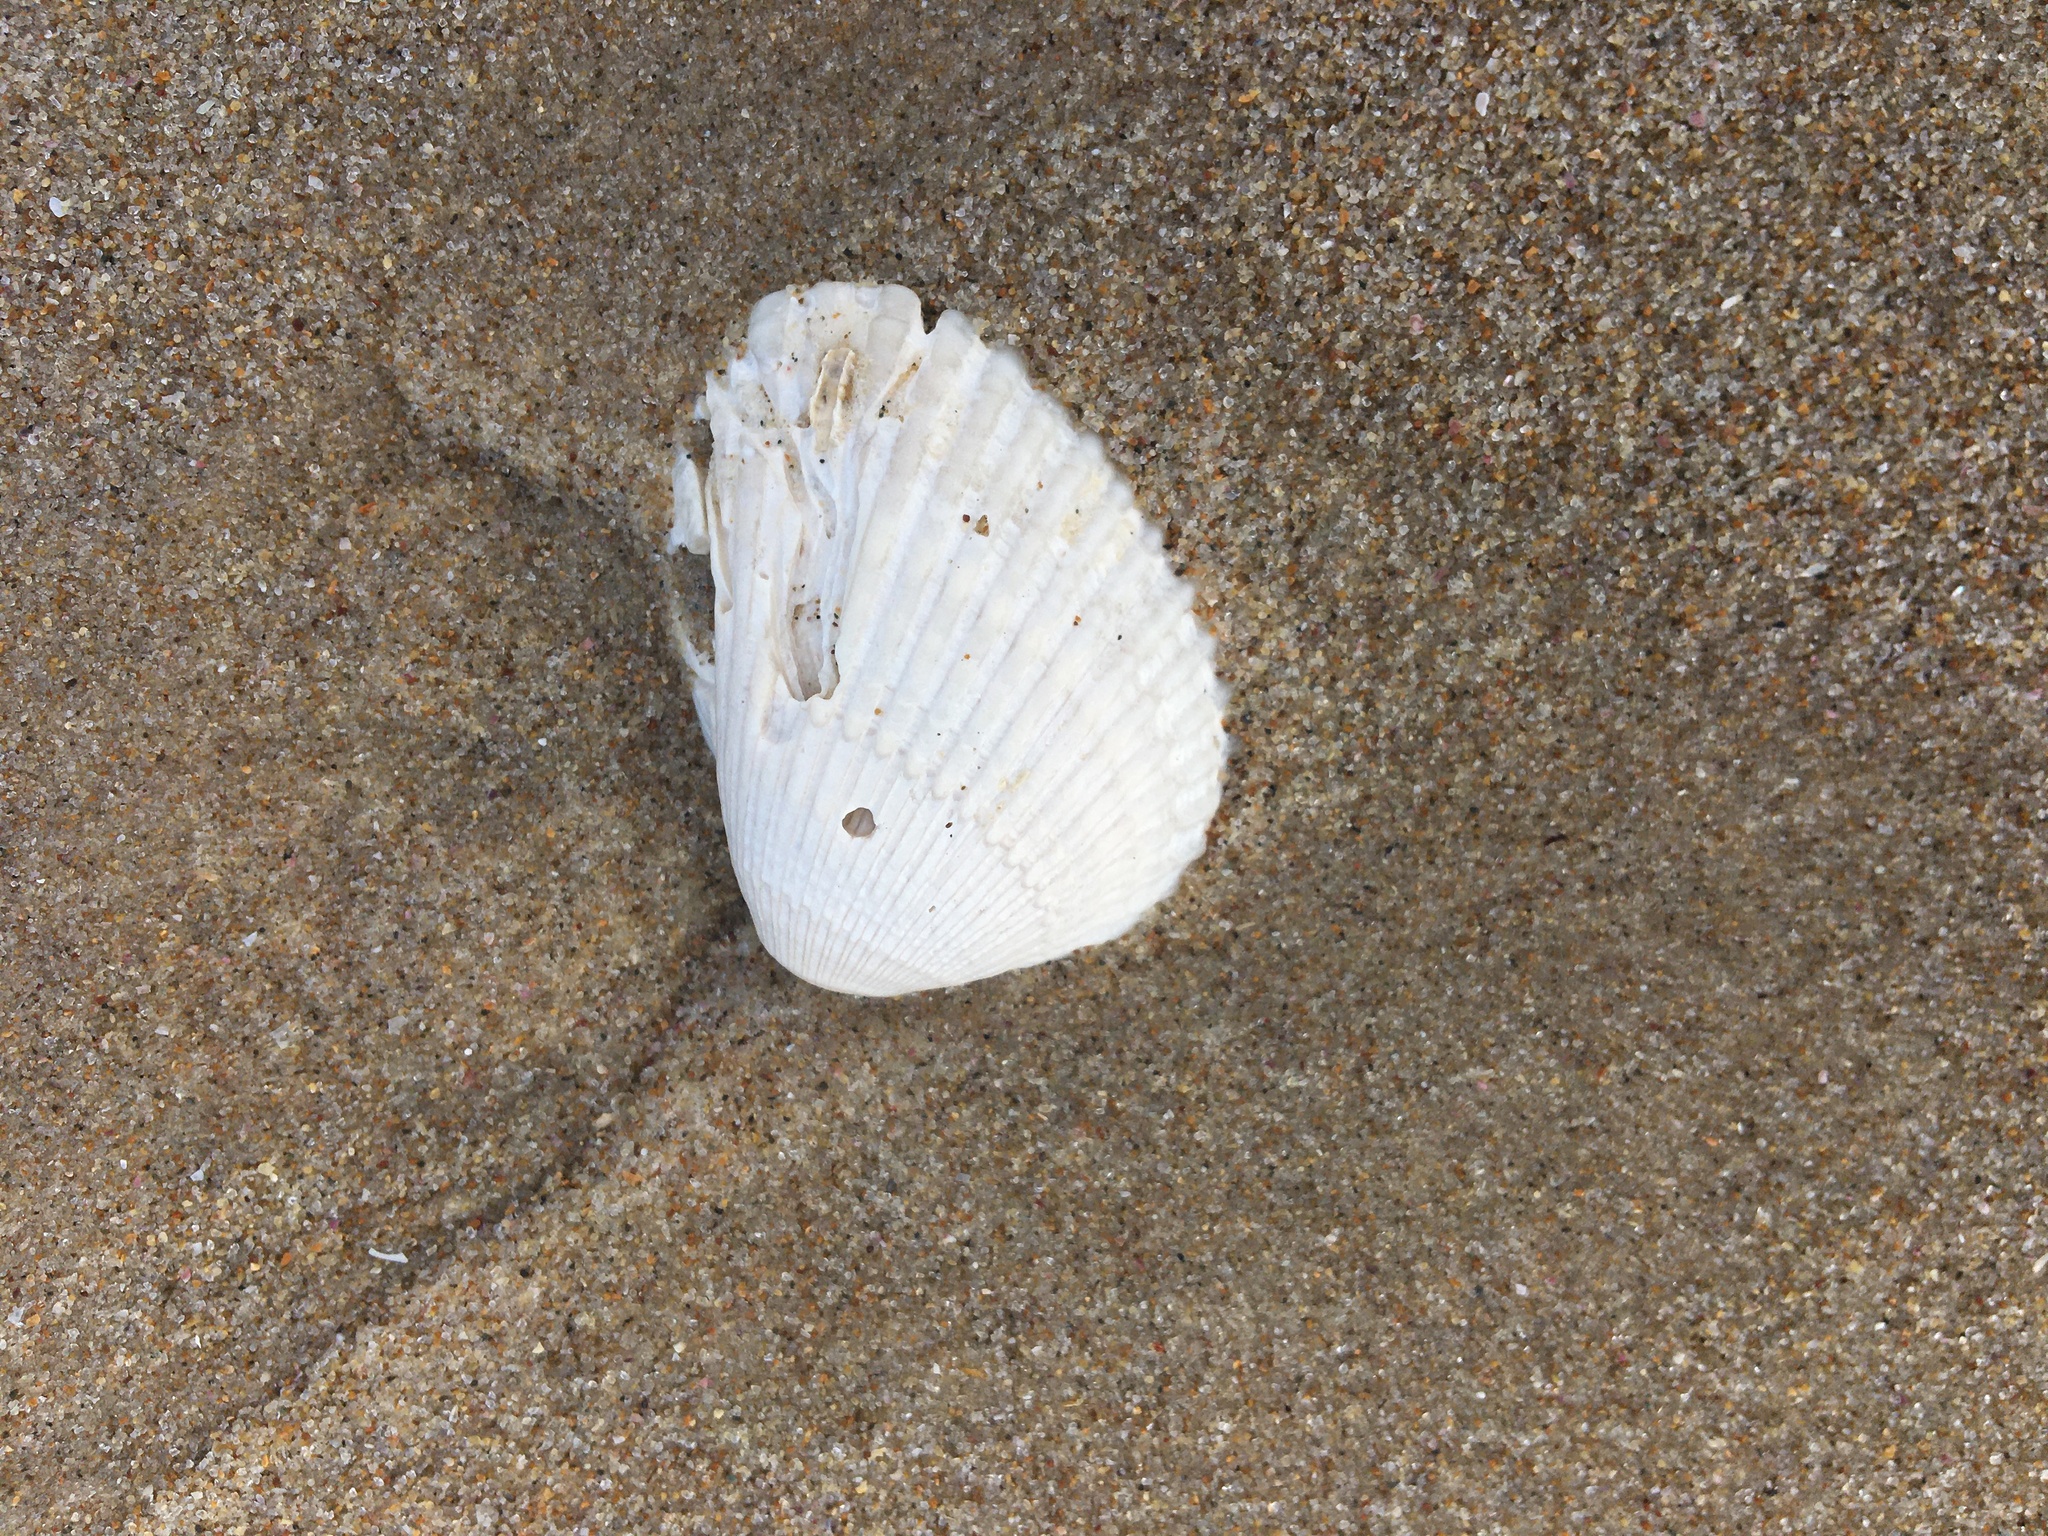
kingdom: Animalia
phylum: Mollusca
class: Bivalvia
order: Arcida
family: Arcidae
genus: Anadara
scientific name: Anadara trapezia
